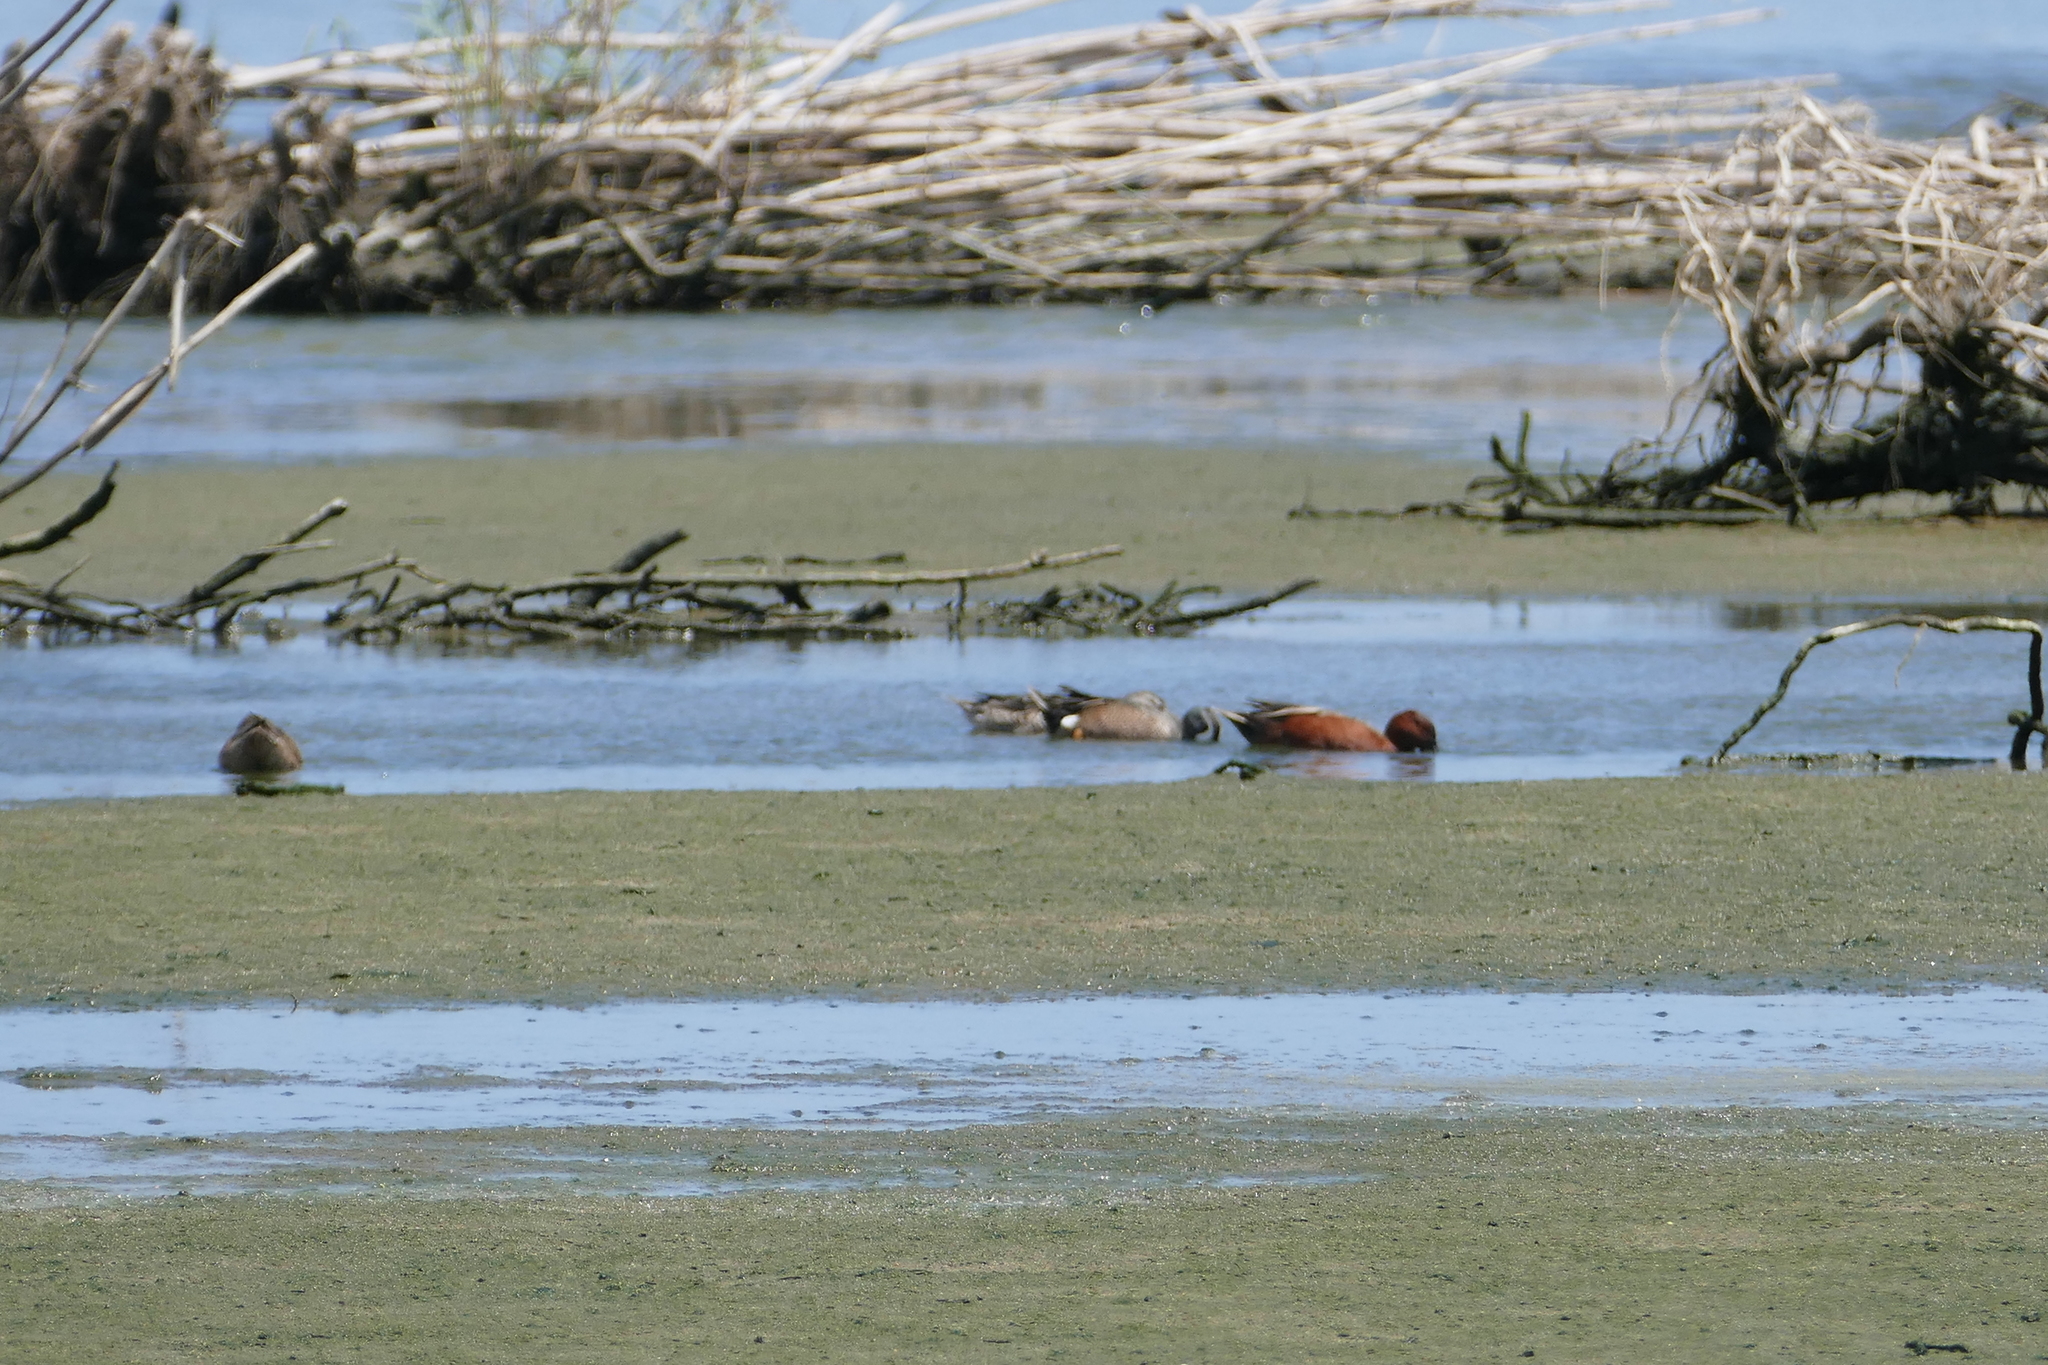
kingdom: Animalia
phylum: Chordata
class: Aves
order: Anseriformes
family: Anatidae
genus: Spatula
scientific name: Spatula cyanoptera
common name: Cinnamon teal
